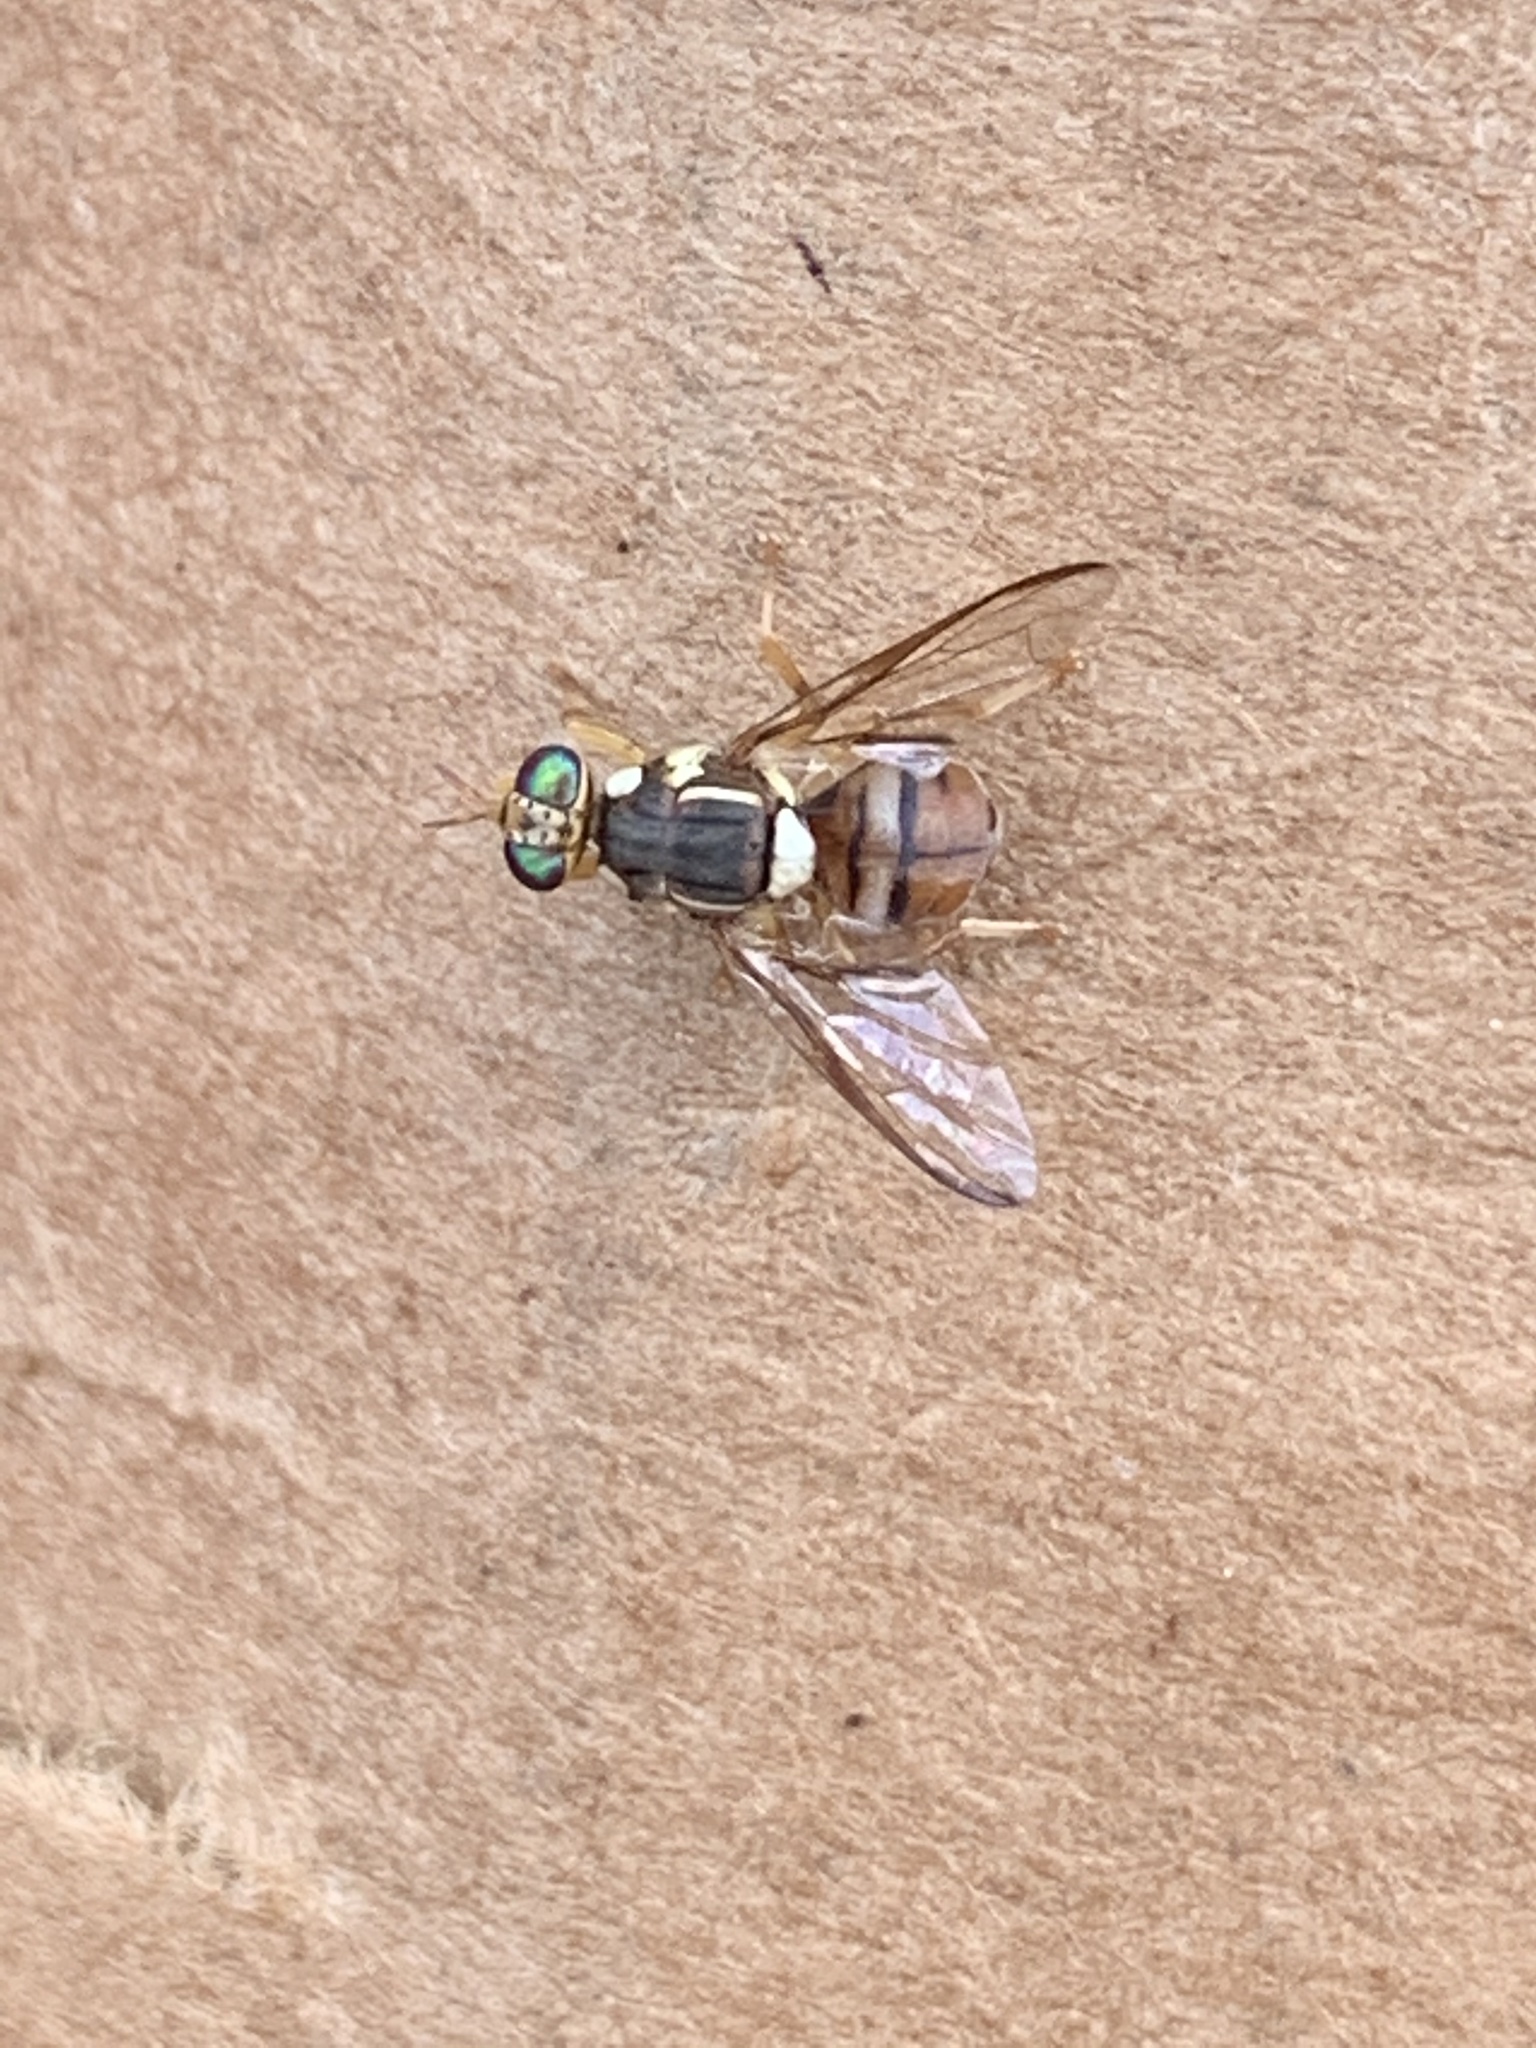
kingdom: Animalia
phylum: Arthropoda
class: Insecta
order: Diptera
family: Tephritidae
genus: Bactrocera
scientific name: Bactrocera dorsalis
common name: Oriental fruit fly
